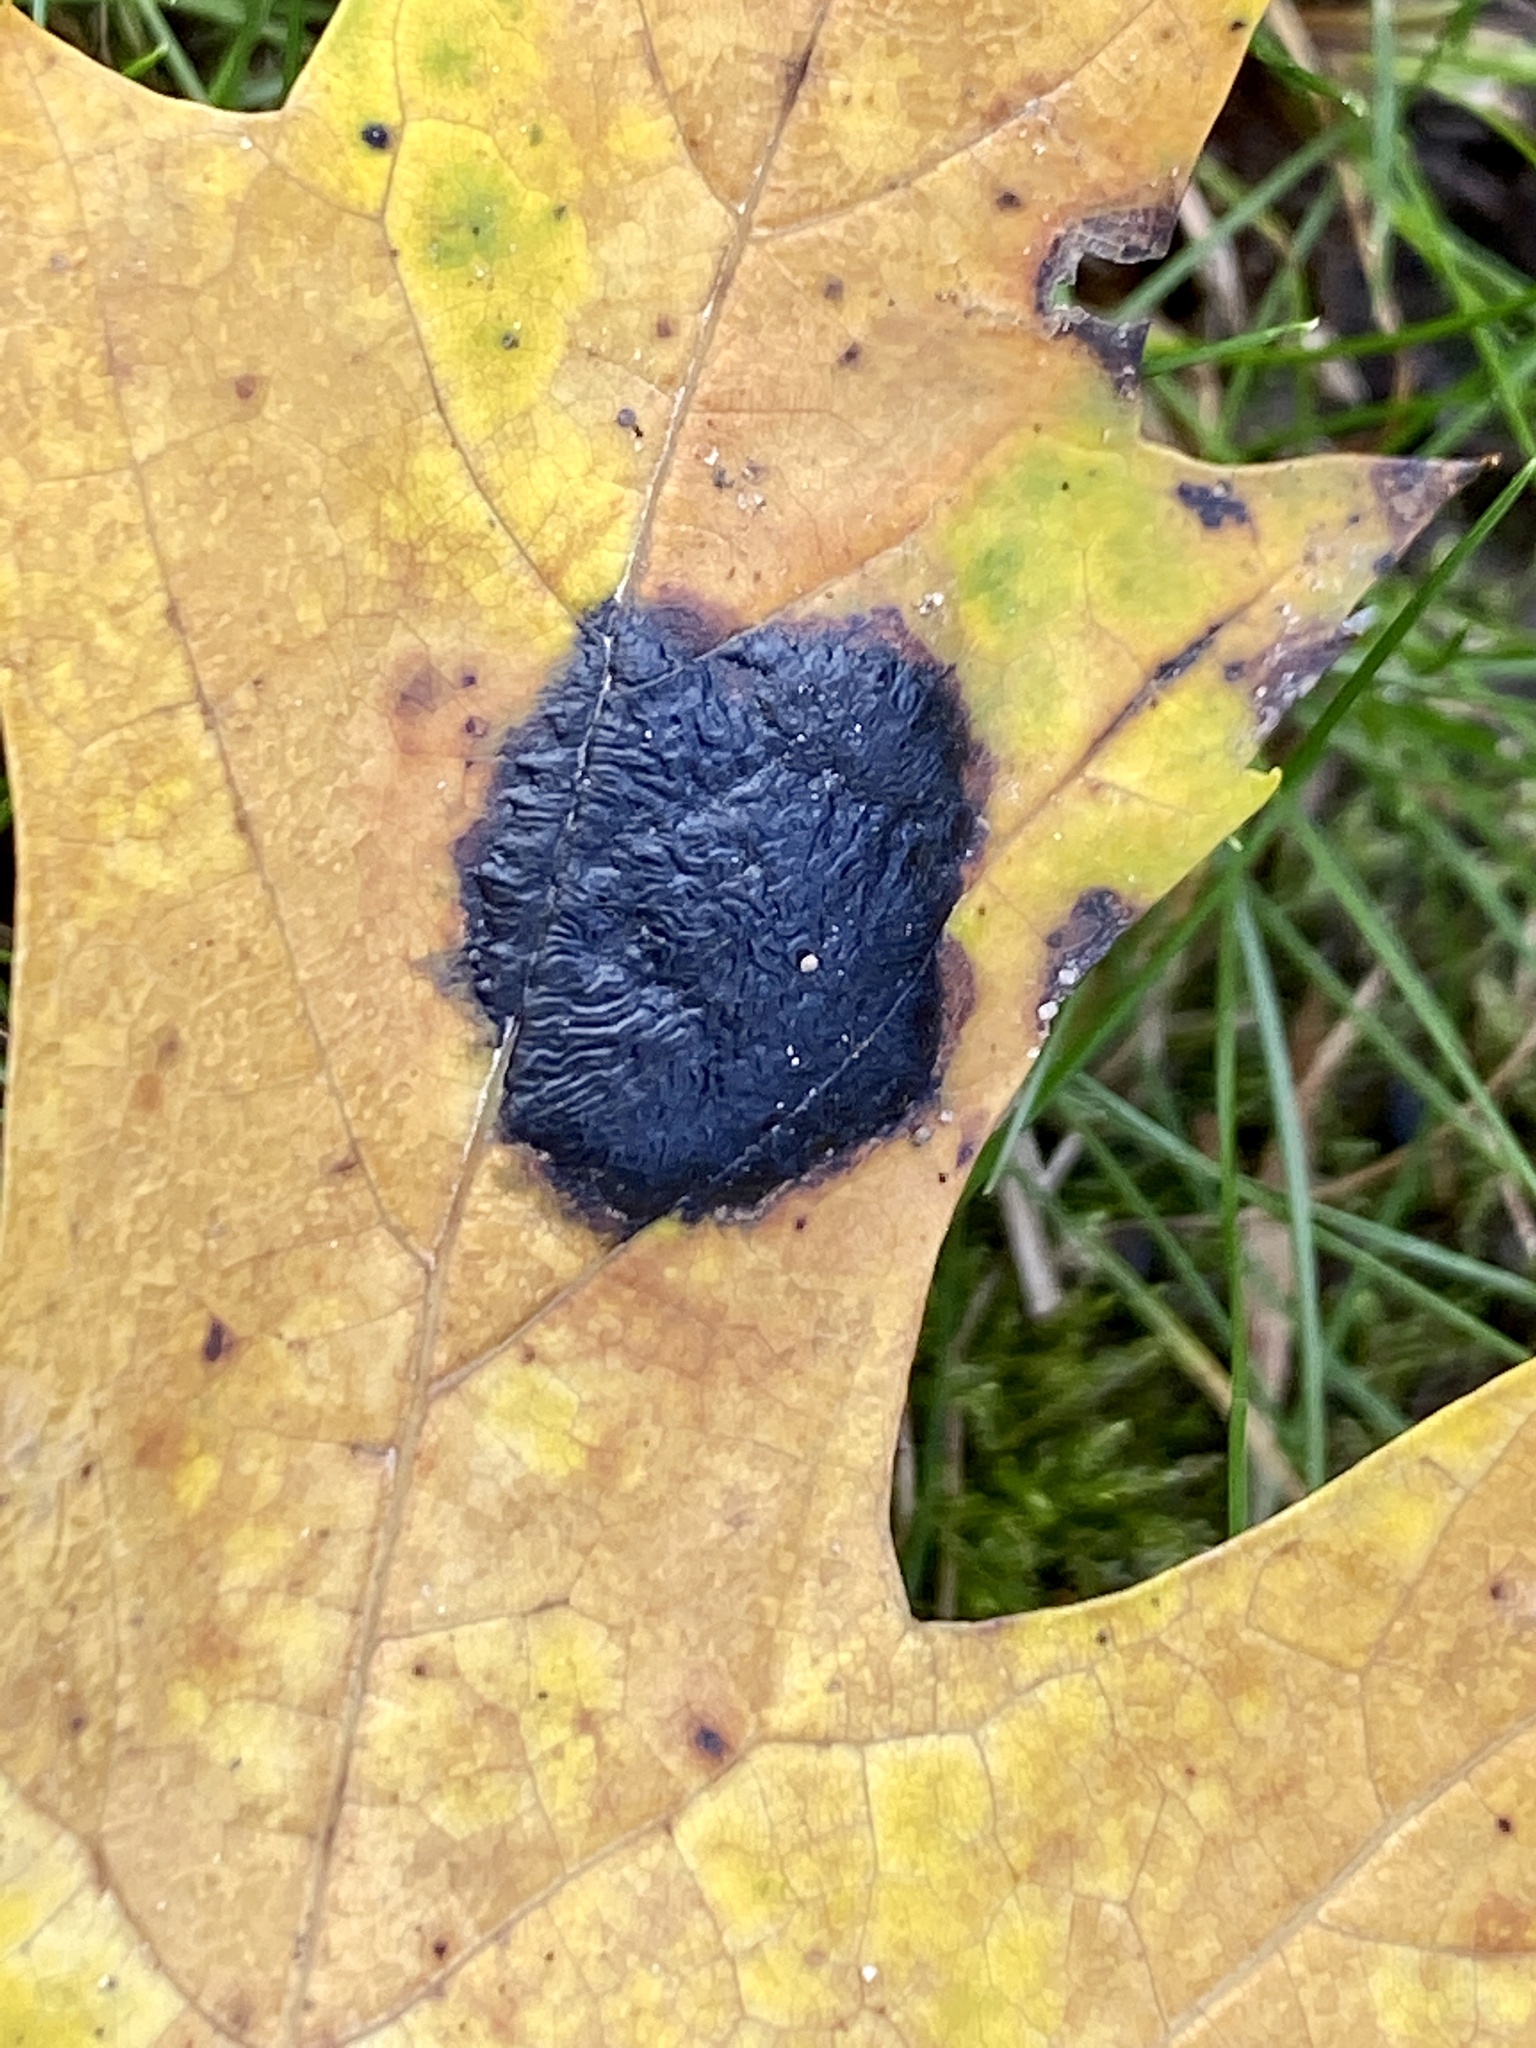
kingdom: Fungi
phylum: Ascomycota
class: Leotiomycetes
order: Rhytismatales
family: Rhytismataceae
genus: Rhytisma
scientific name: Rhytisma americanum
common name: American tar spot
